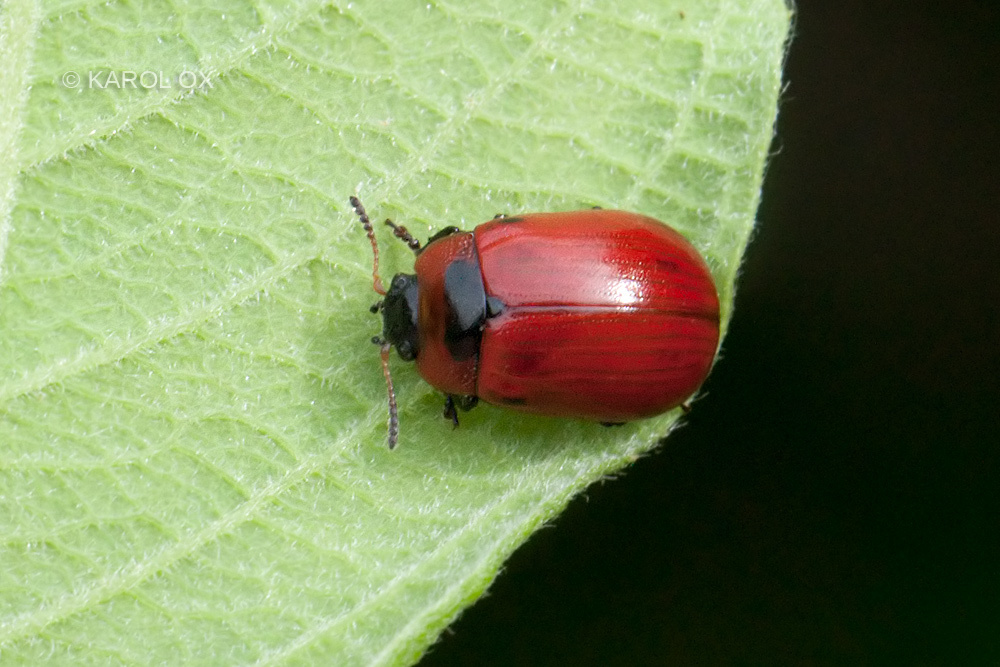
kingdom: Animalia
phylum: Arthropoda
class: Insecta
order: Coleoptera
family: Chrysomelidae
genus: Gonioctena
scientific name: Gonioctena viminalis
